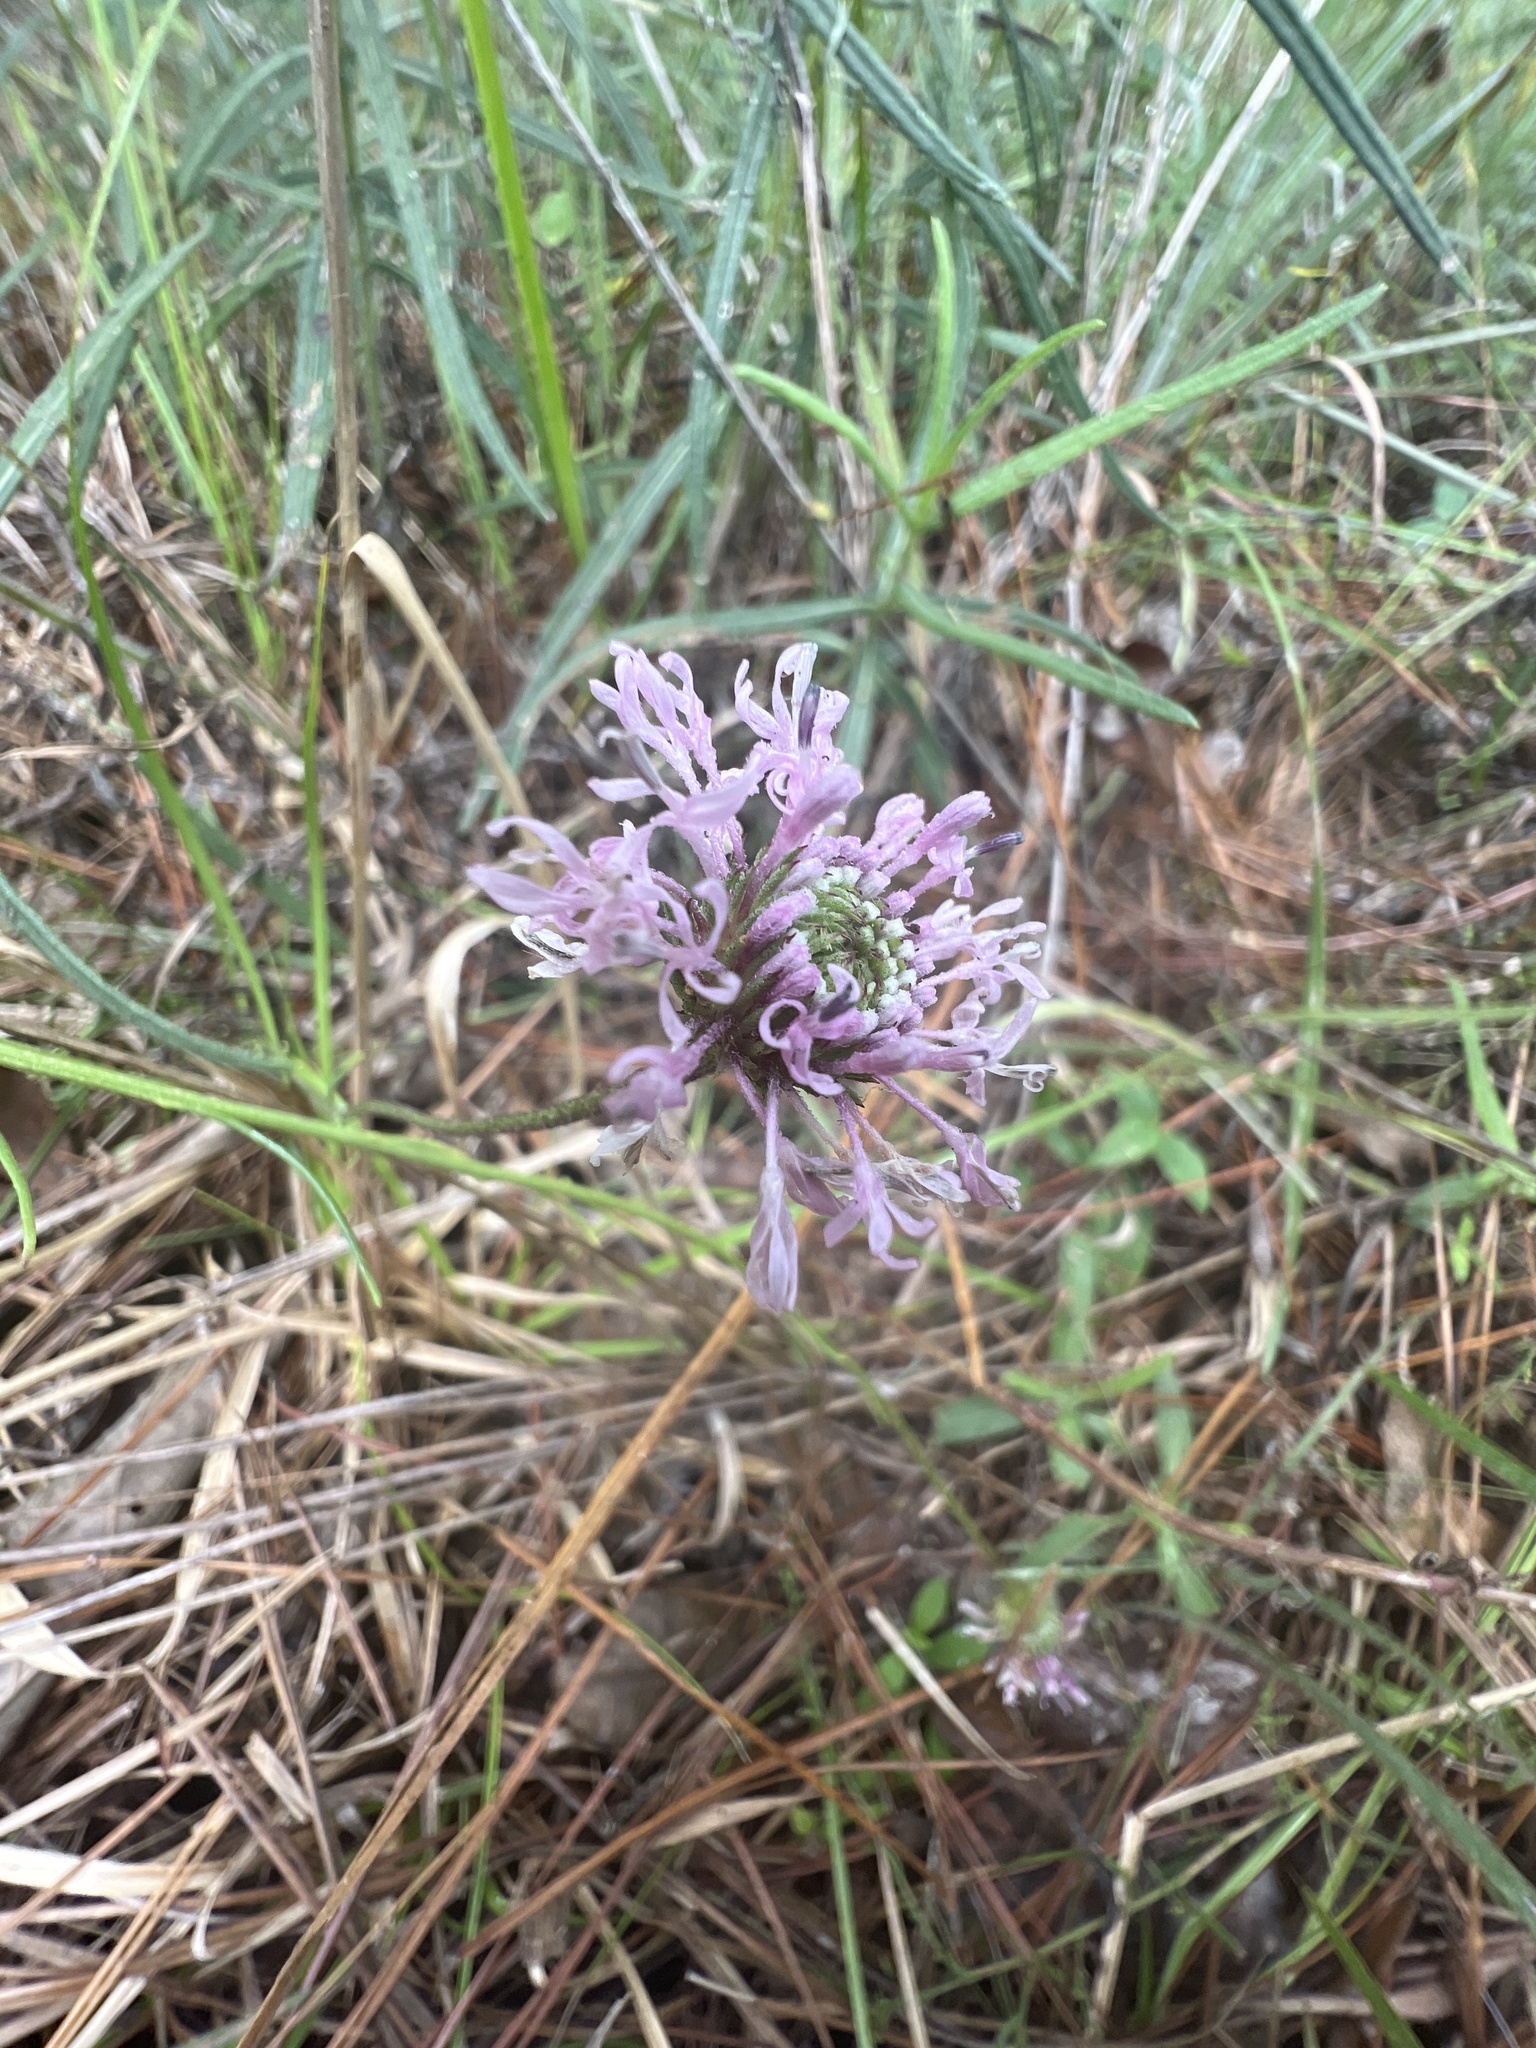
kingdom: Plantae
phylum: Tracheophyta
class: Magnoliopsida
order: Asterales
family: Asteraceae
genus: Marshallia
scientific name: Marshallia graminifolia
